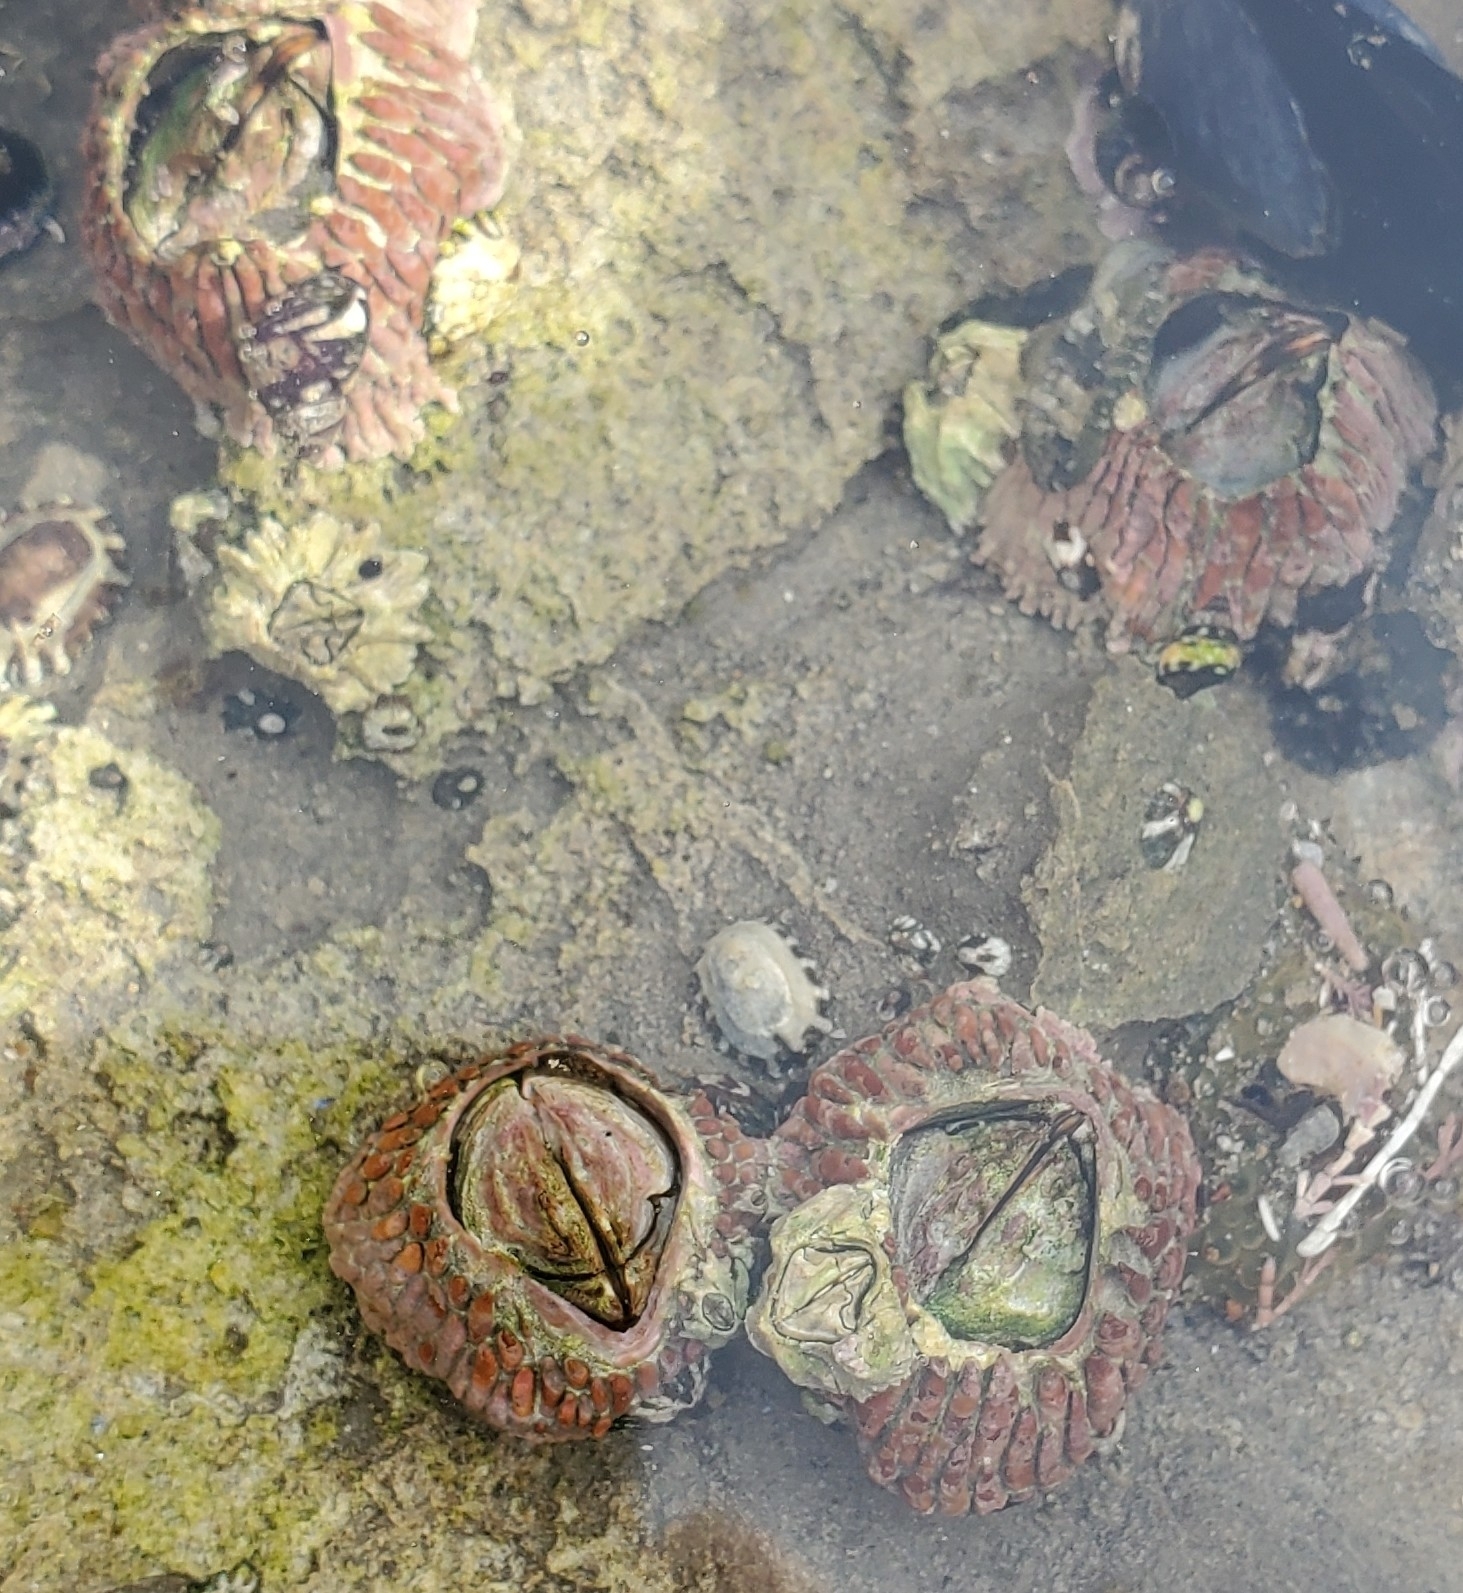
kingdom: Animalia
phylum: Arthropoda
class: Maxillopoda
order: Sessilia
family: Tetraclitidae
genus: Tetraclita
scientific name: Tetraclita rubescens
